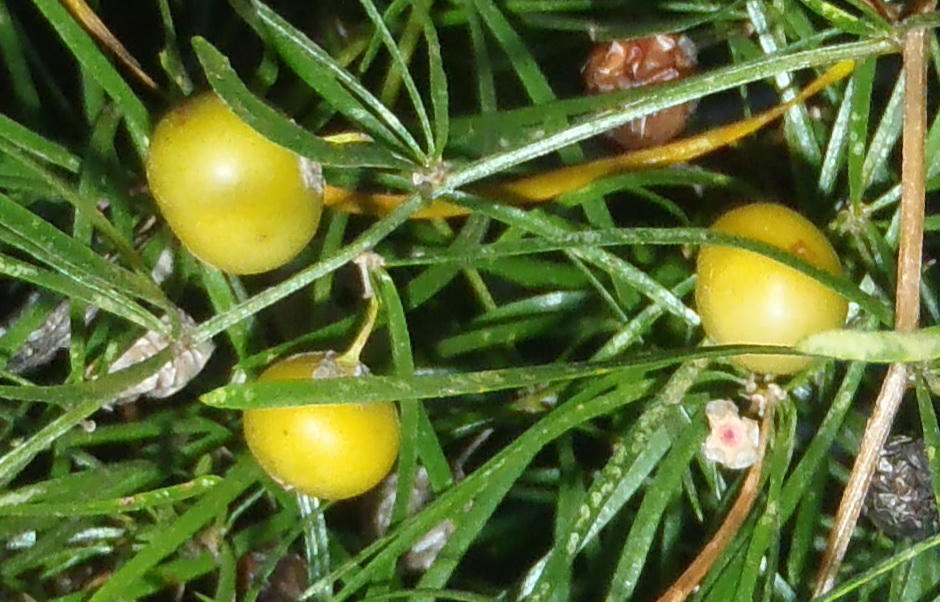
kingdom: Plantae
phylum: Tracheophyta
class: Liliopsida
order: Asparagales
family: Asparagaceae
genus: Asparagus
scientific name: Asparagus angusticladus
